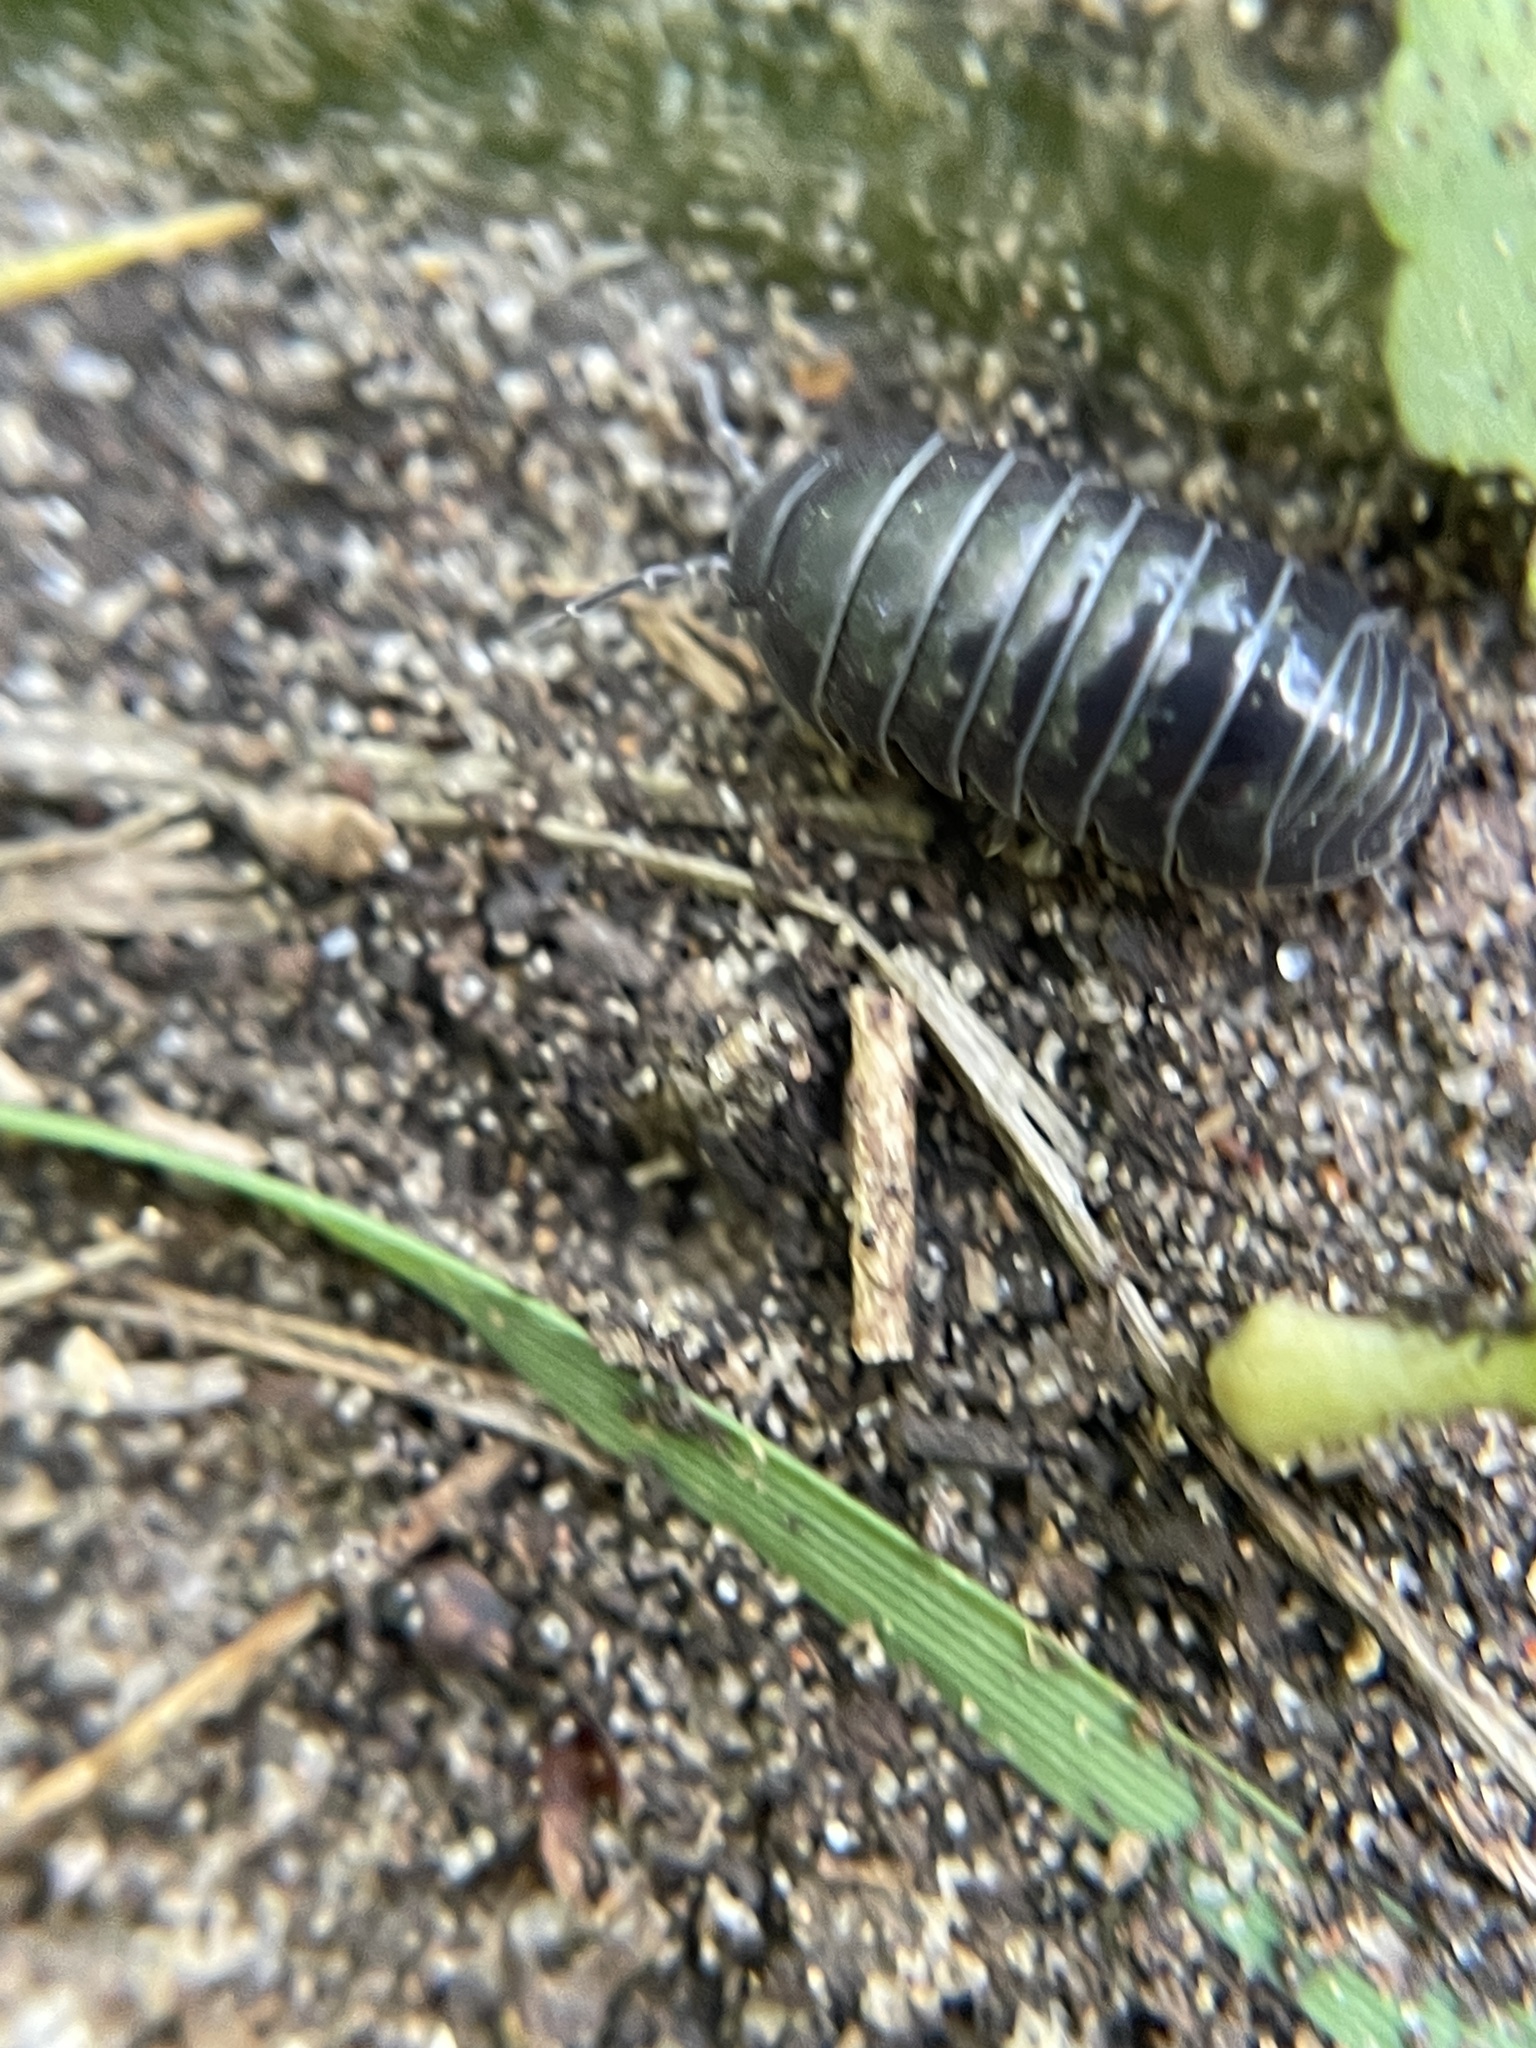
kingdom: Animalia
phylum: Arthropoda
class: Malacostraca
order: Isopoda
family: Armadillidiidae
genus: Armadillidium
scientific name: Armadillidium vulgare
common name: Common pill woodlouse
